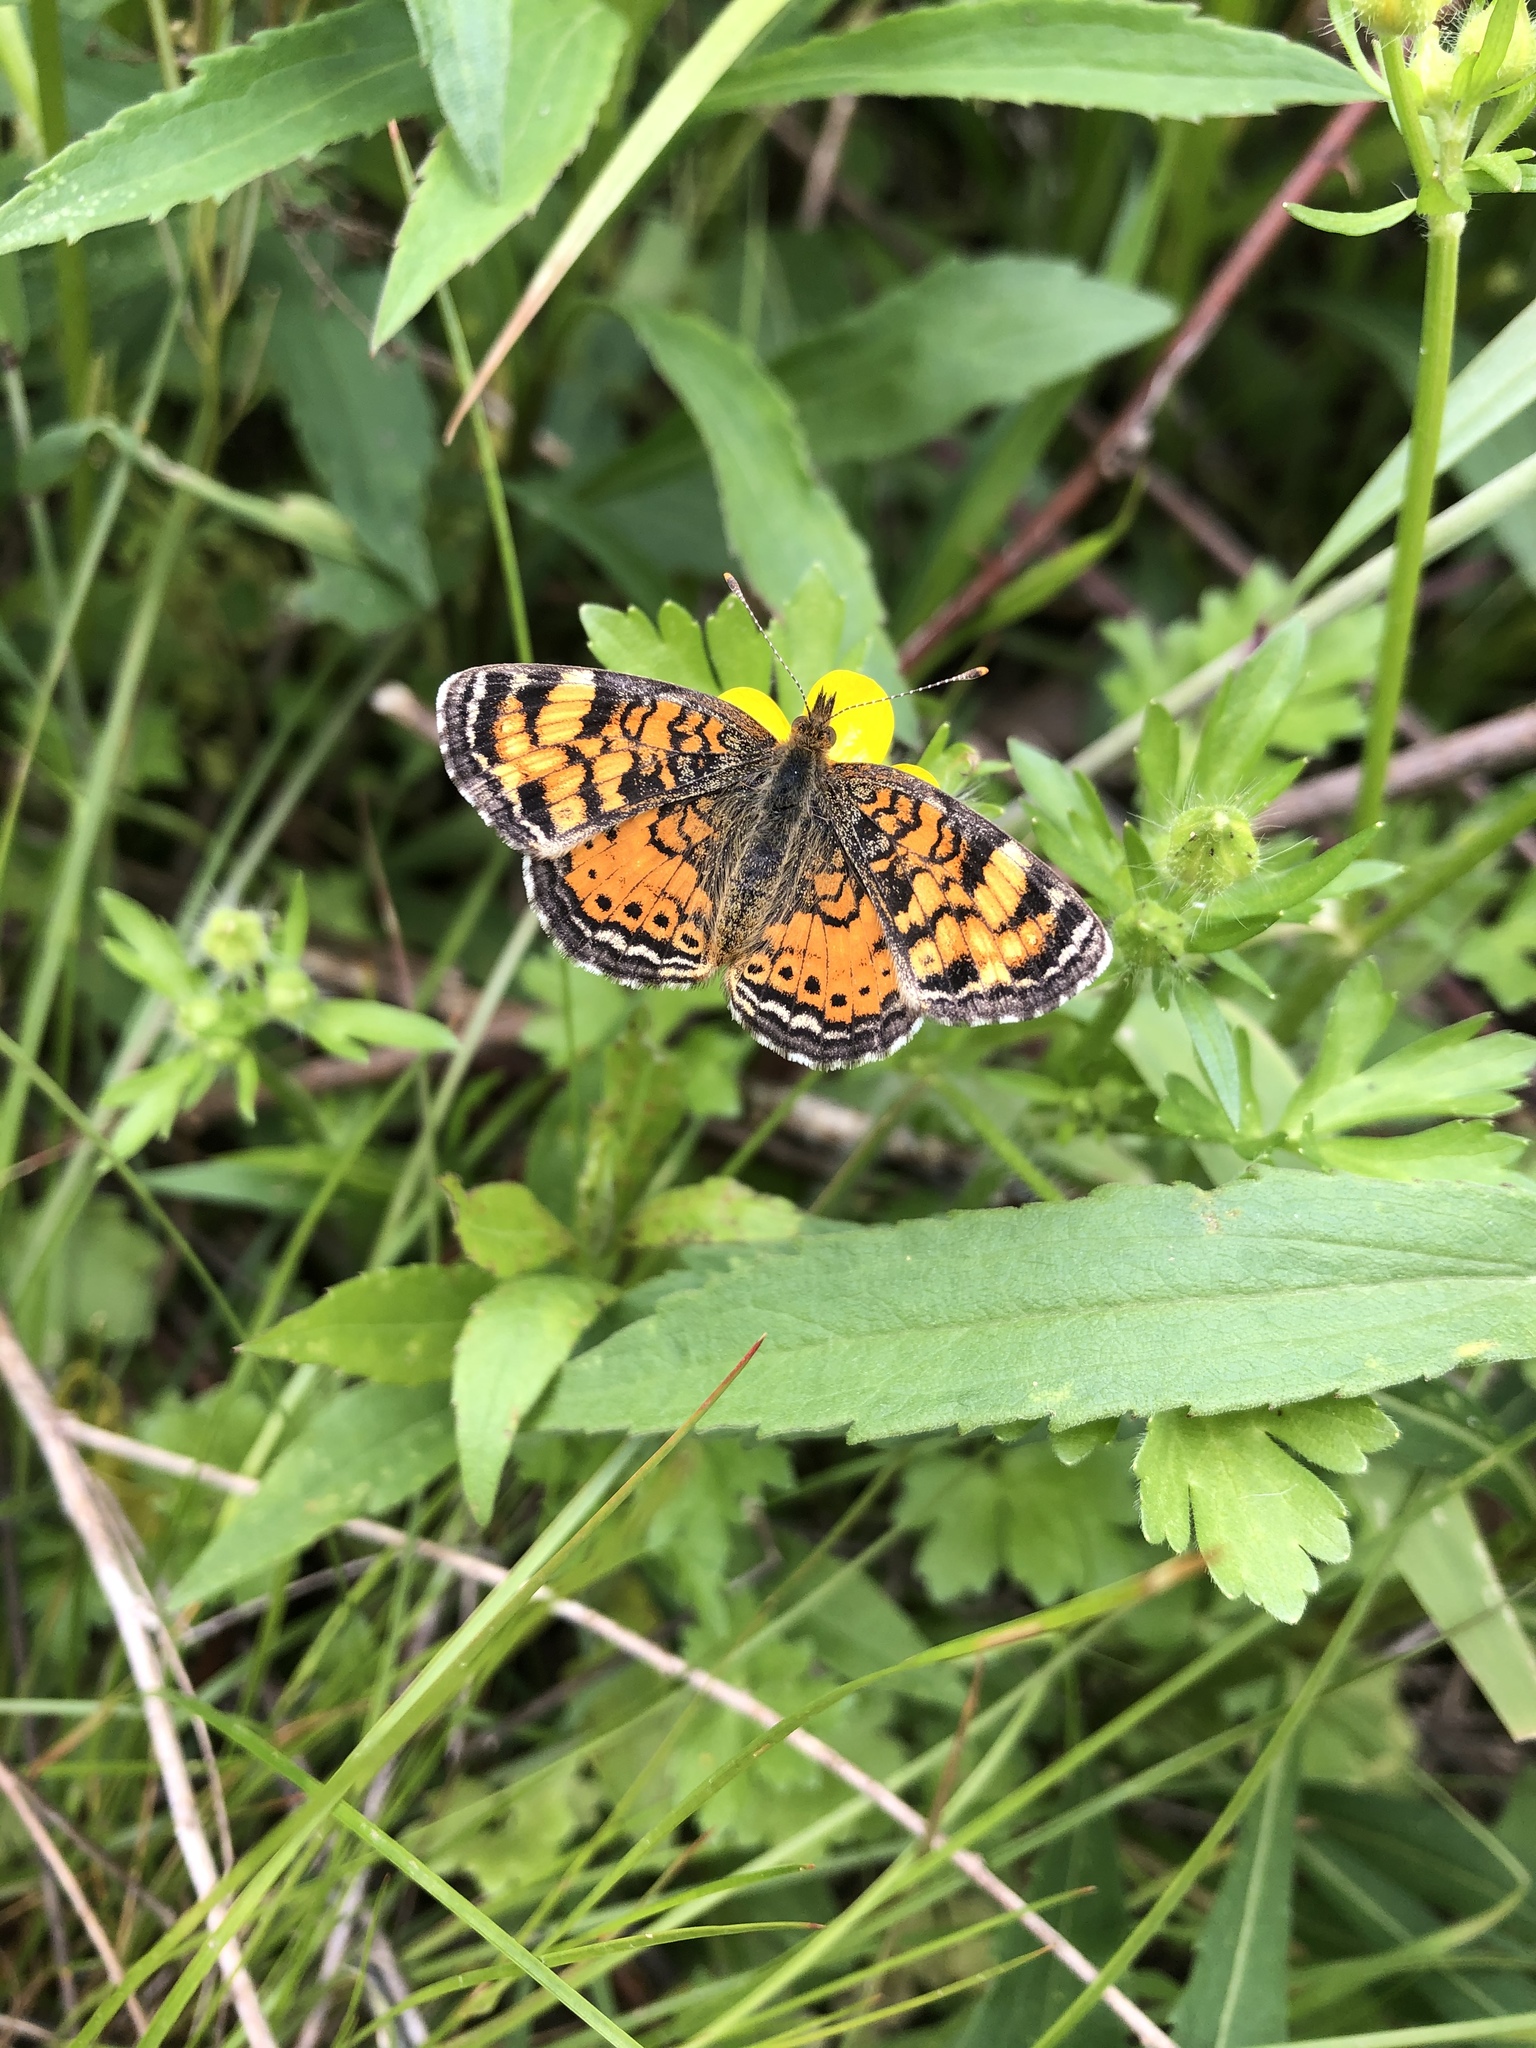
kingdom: Animalia
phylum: Arthropoda
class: Insecta
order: Lepidoptera
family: Nymphalidae
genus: Phyciodes
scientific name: Phyciodes tharos
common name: Pearl crescent
